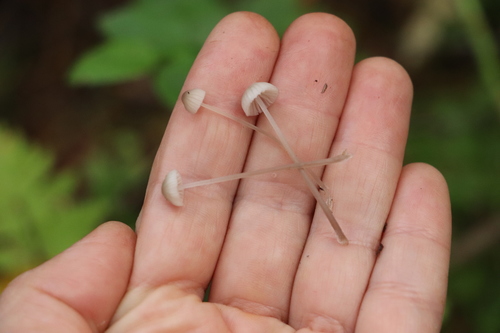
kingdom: Fungi
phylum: Basidiomycota
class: Agaricomycetes
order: Agaricales
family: Mycenaceae
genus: Mycena
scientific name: Mycena
